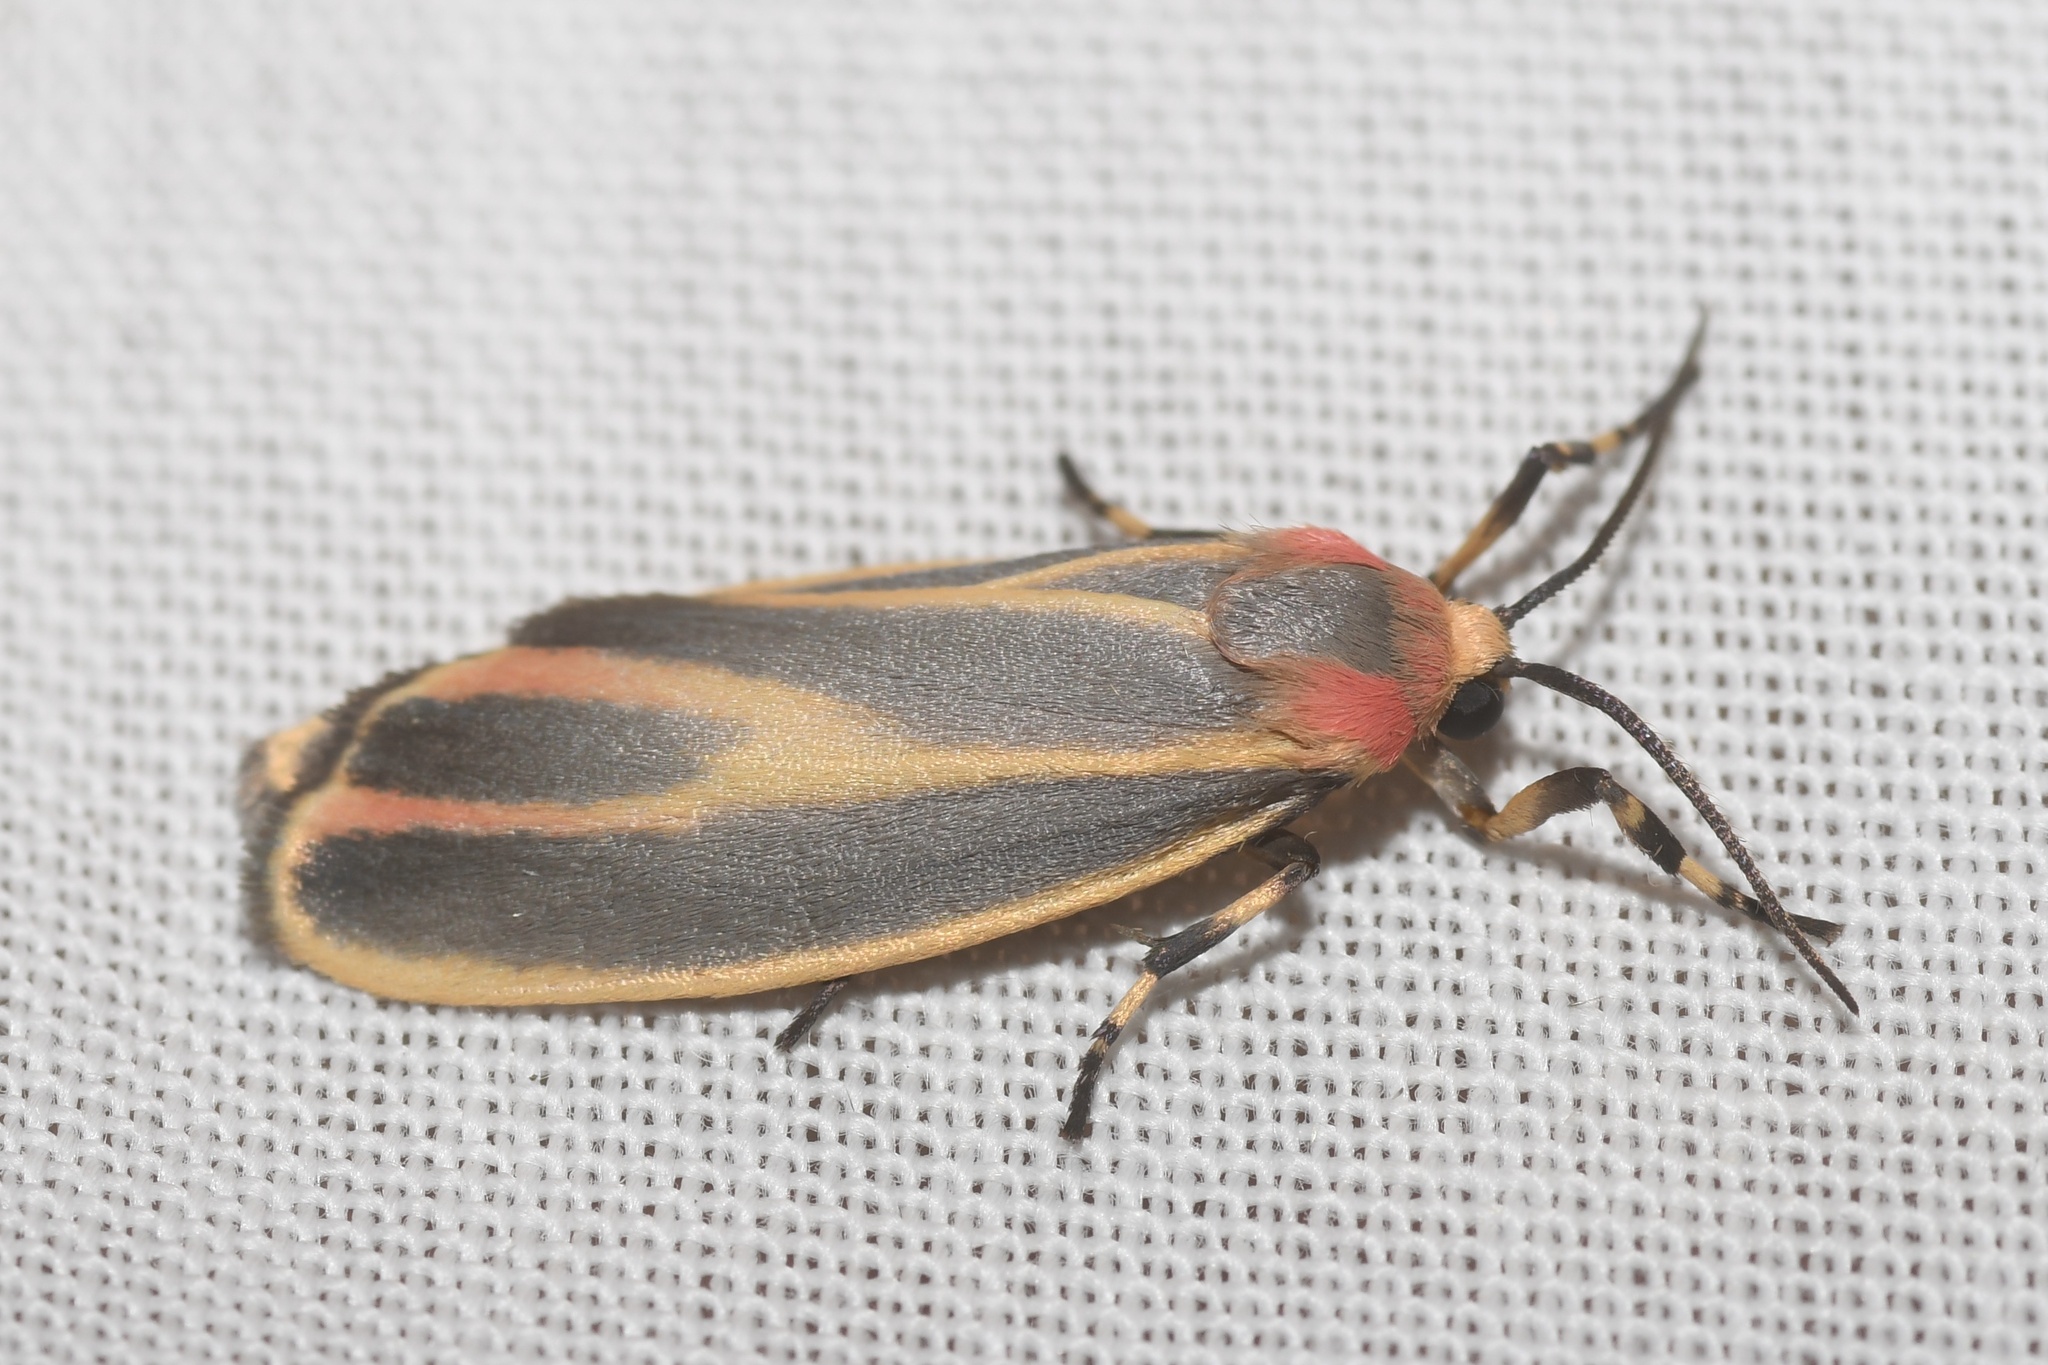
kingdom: Animalia
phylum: Arthropoda
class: Insecta
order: Lepidoptera
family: Erebidae
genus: Hypoprepia
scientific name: Hypoprepia fucosa
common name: Painted lichen moth
